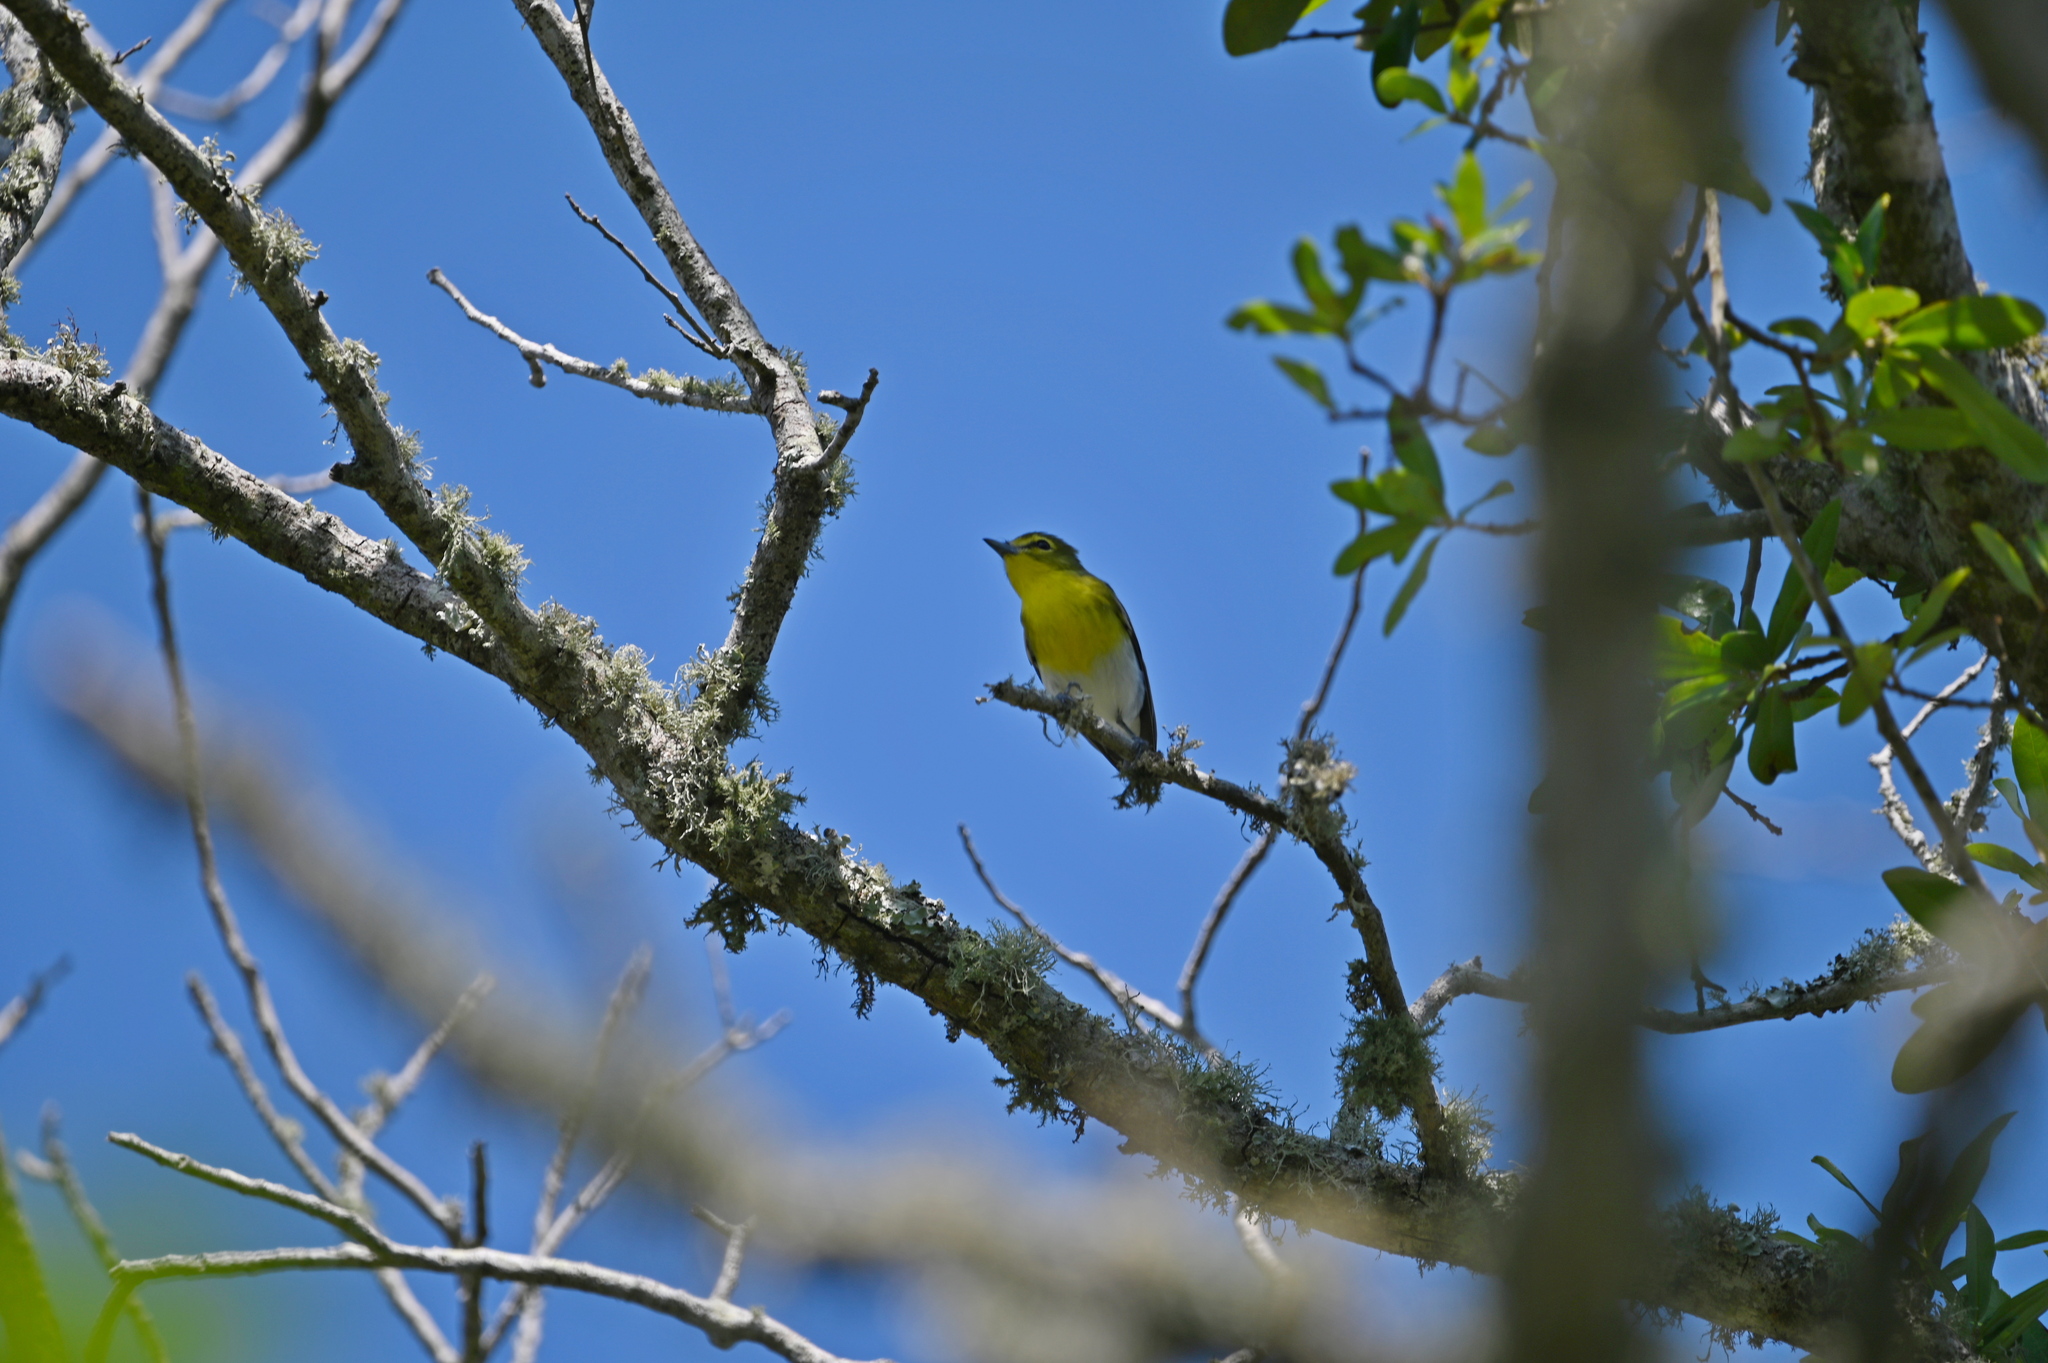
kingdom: Animalia
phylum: Chordata
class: Aves
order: Passeriformes
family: Vireonidae
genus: Vireo
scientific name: Vireo flavifrons
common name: Yellow-throated vireo
